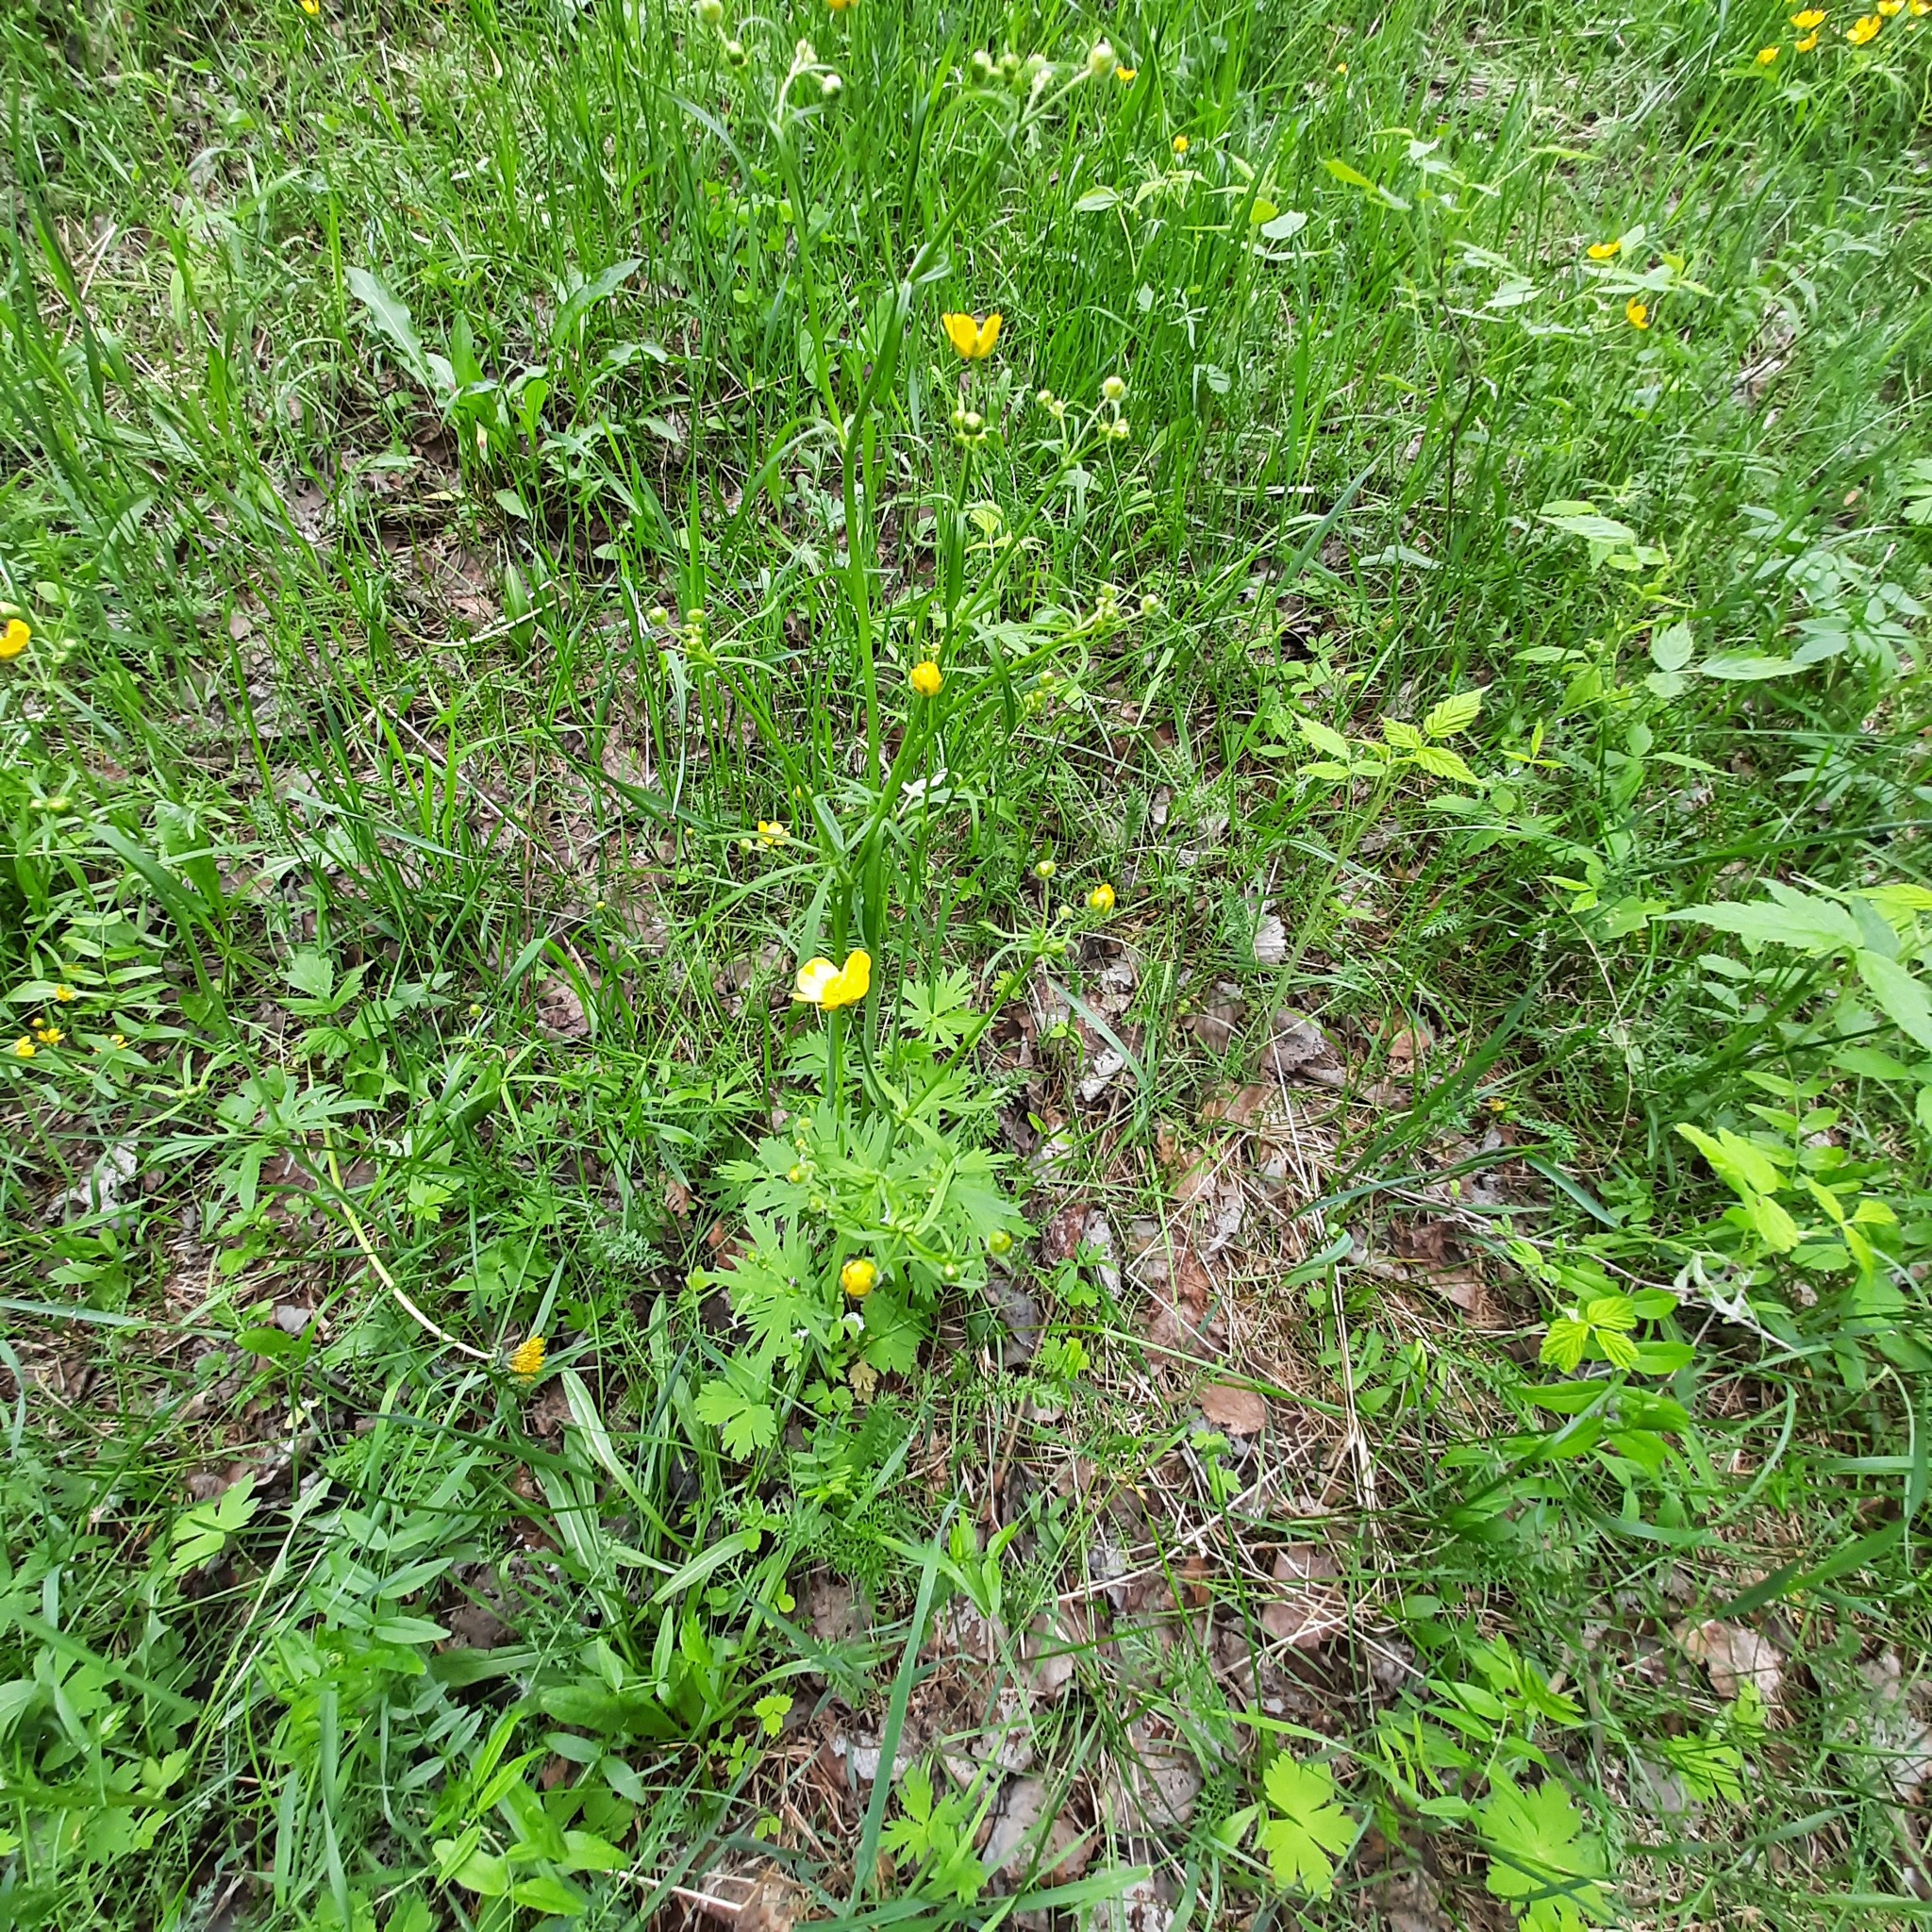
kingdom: Plantae
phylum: Tracheophyta
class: Magnoliopsida
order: Ranunculales
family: Ranunculaceae
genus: Ranunculus
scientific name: Ranunculus polyanthemos
